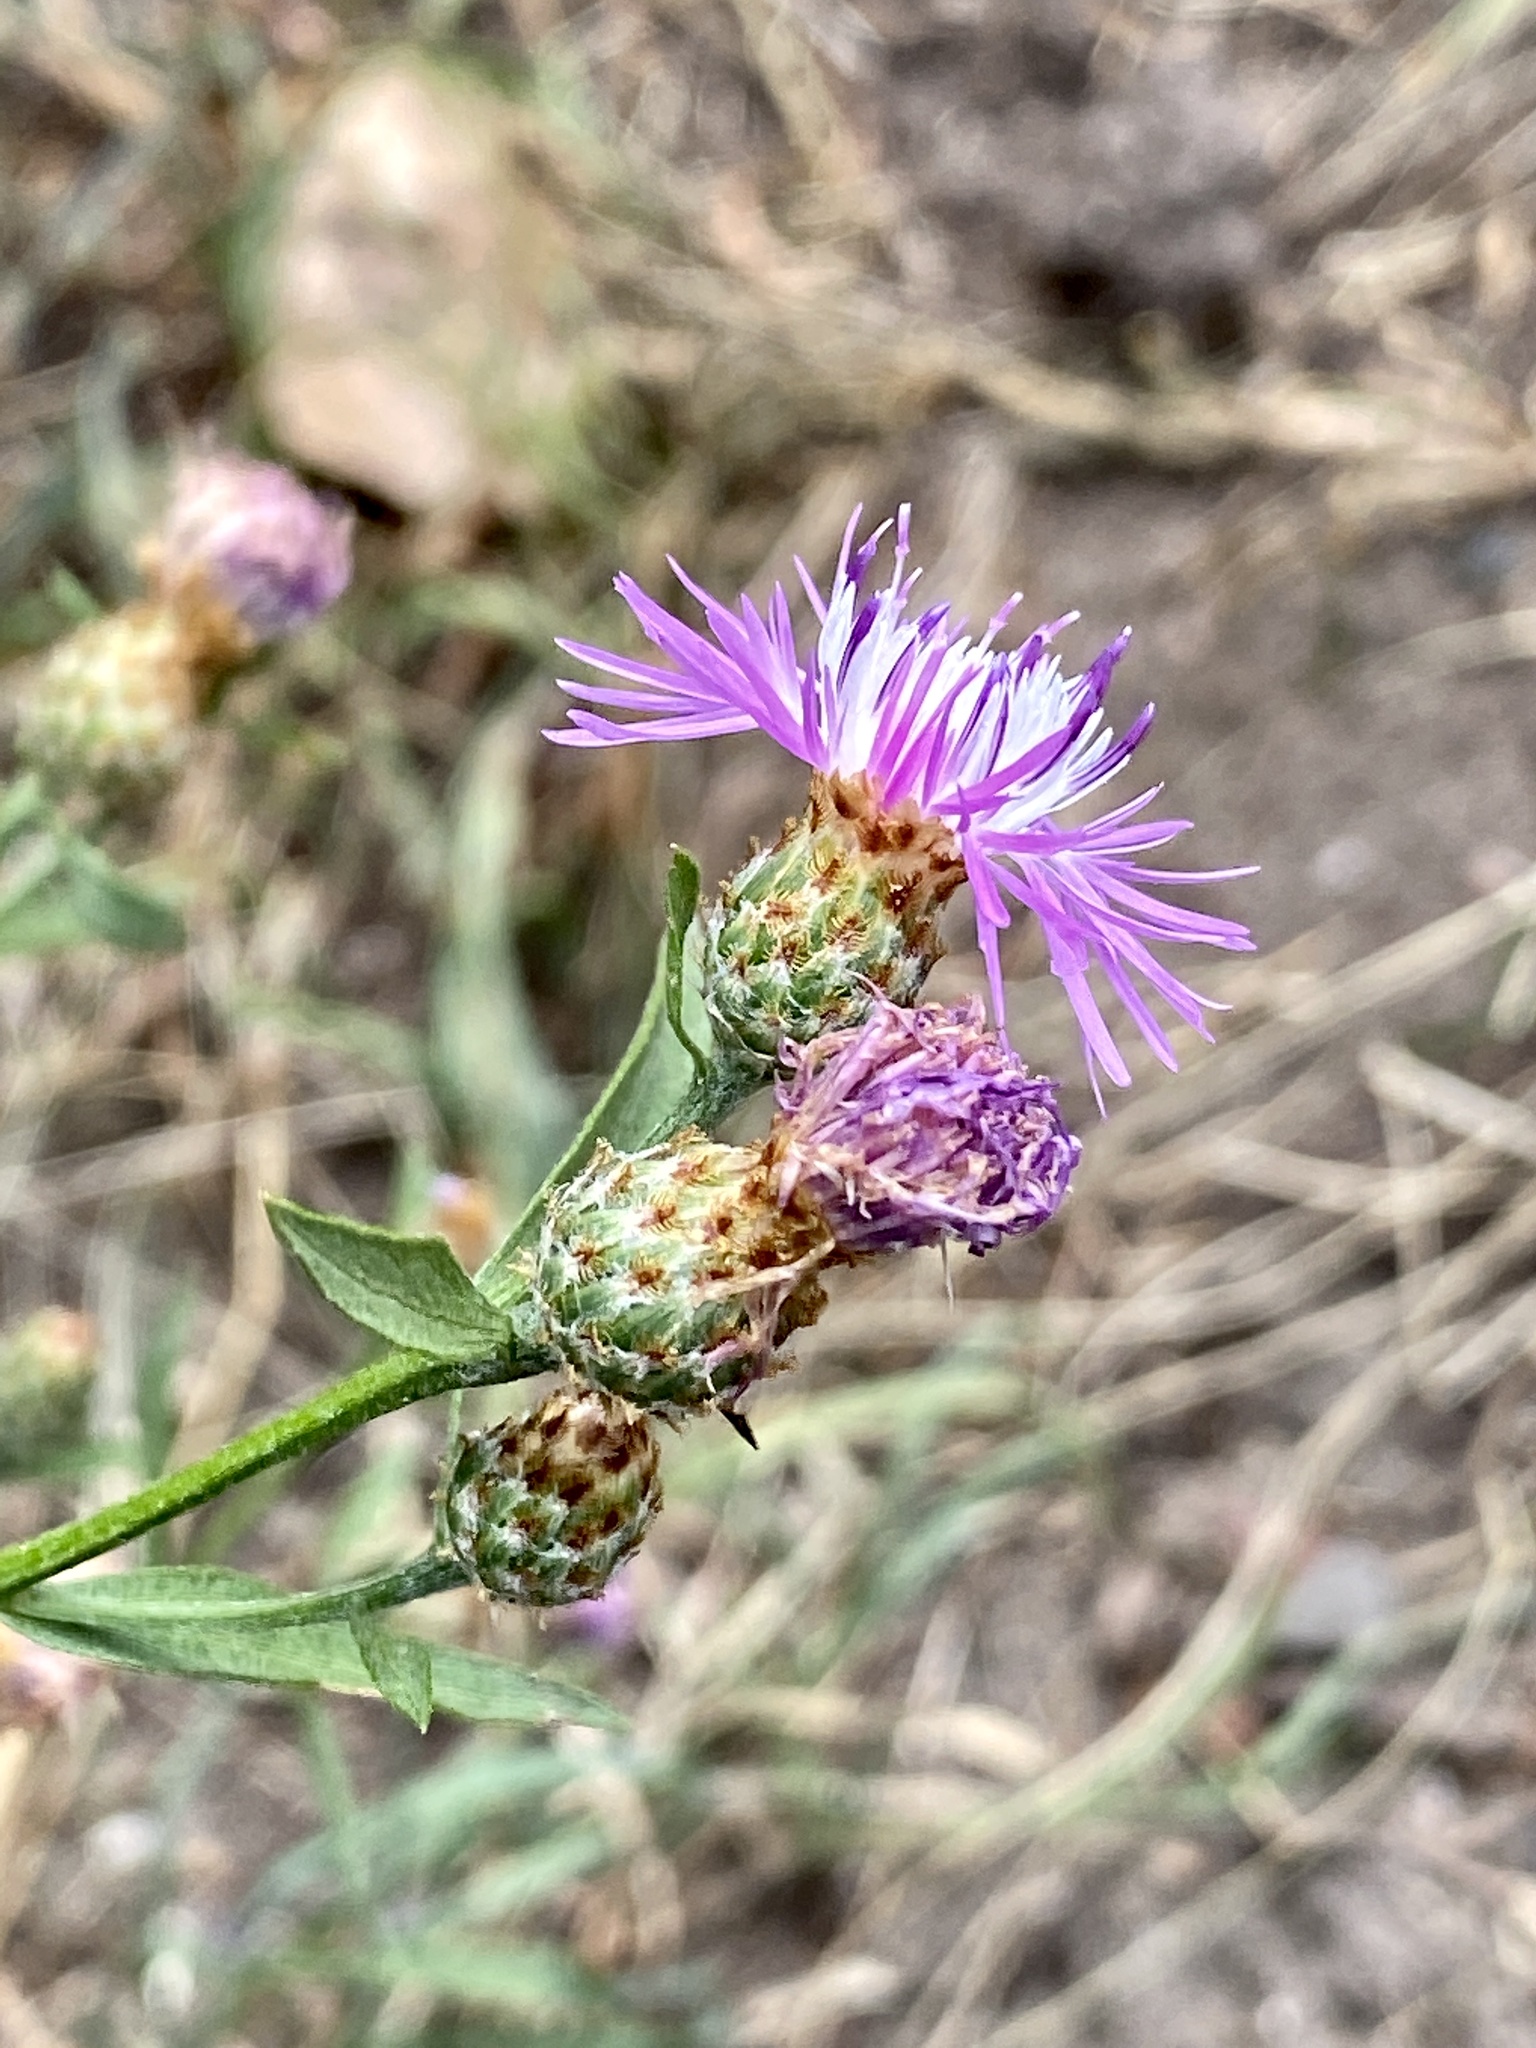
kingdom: Plantae
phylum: Tracheophyta
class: Magnoliopsida
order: Asterales
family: Asteraceae
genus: Centaurea
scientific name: Centaurea nigrescens
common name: Tyrol knapweed
